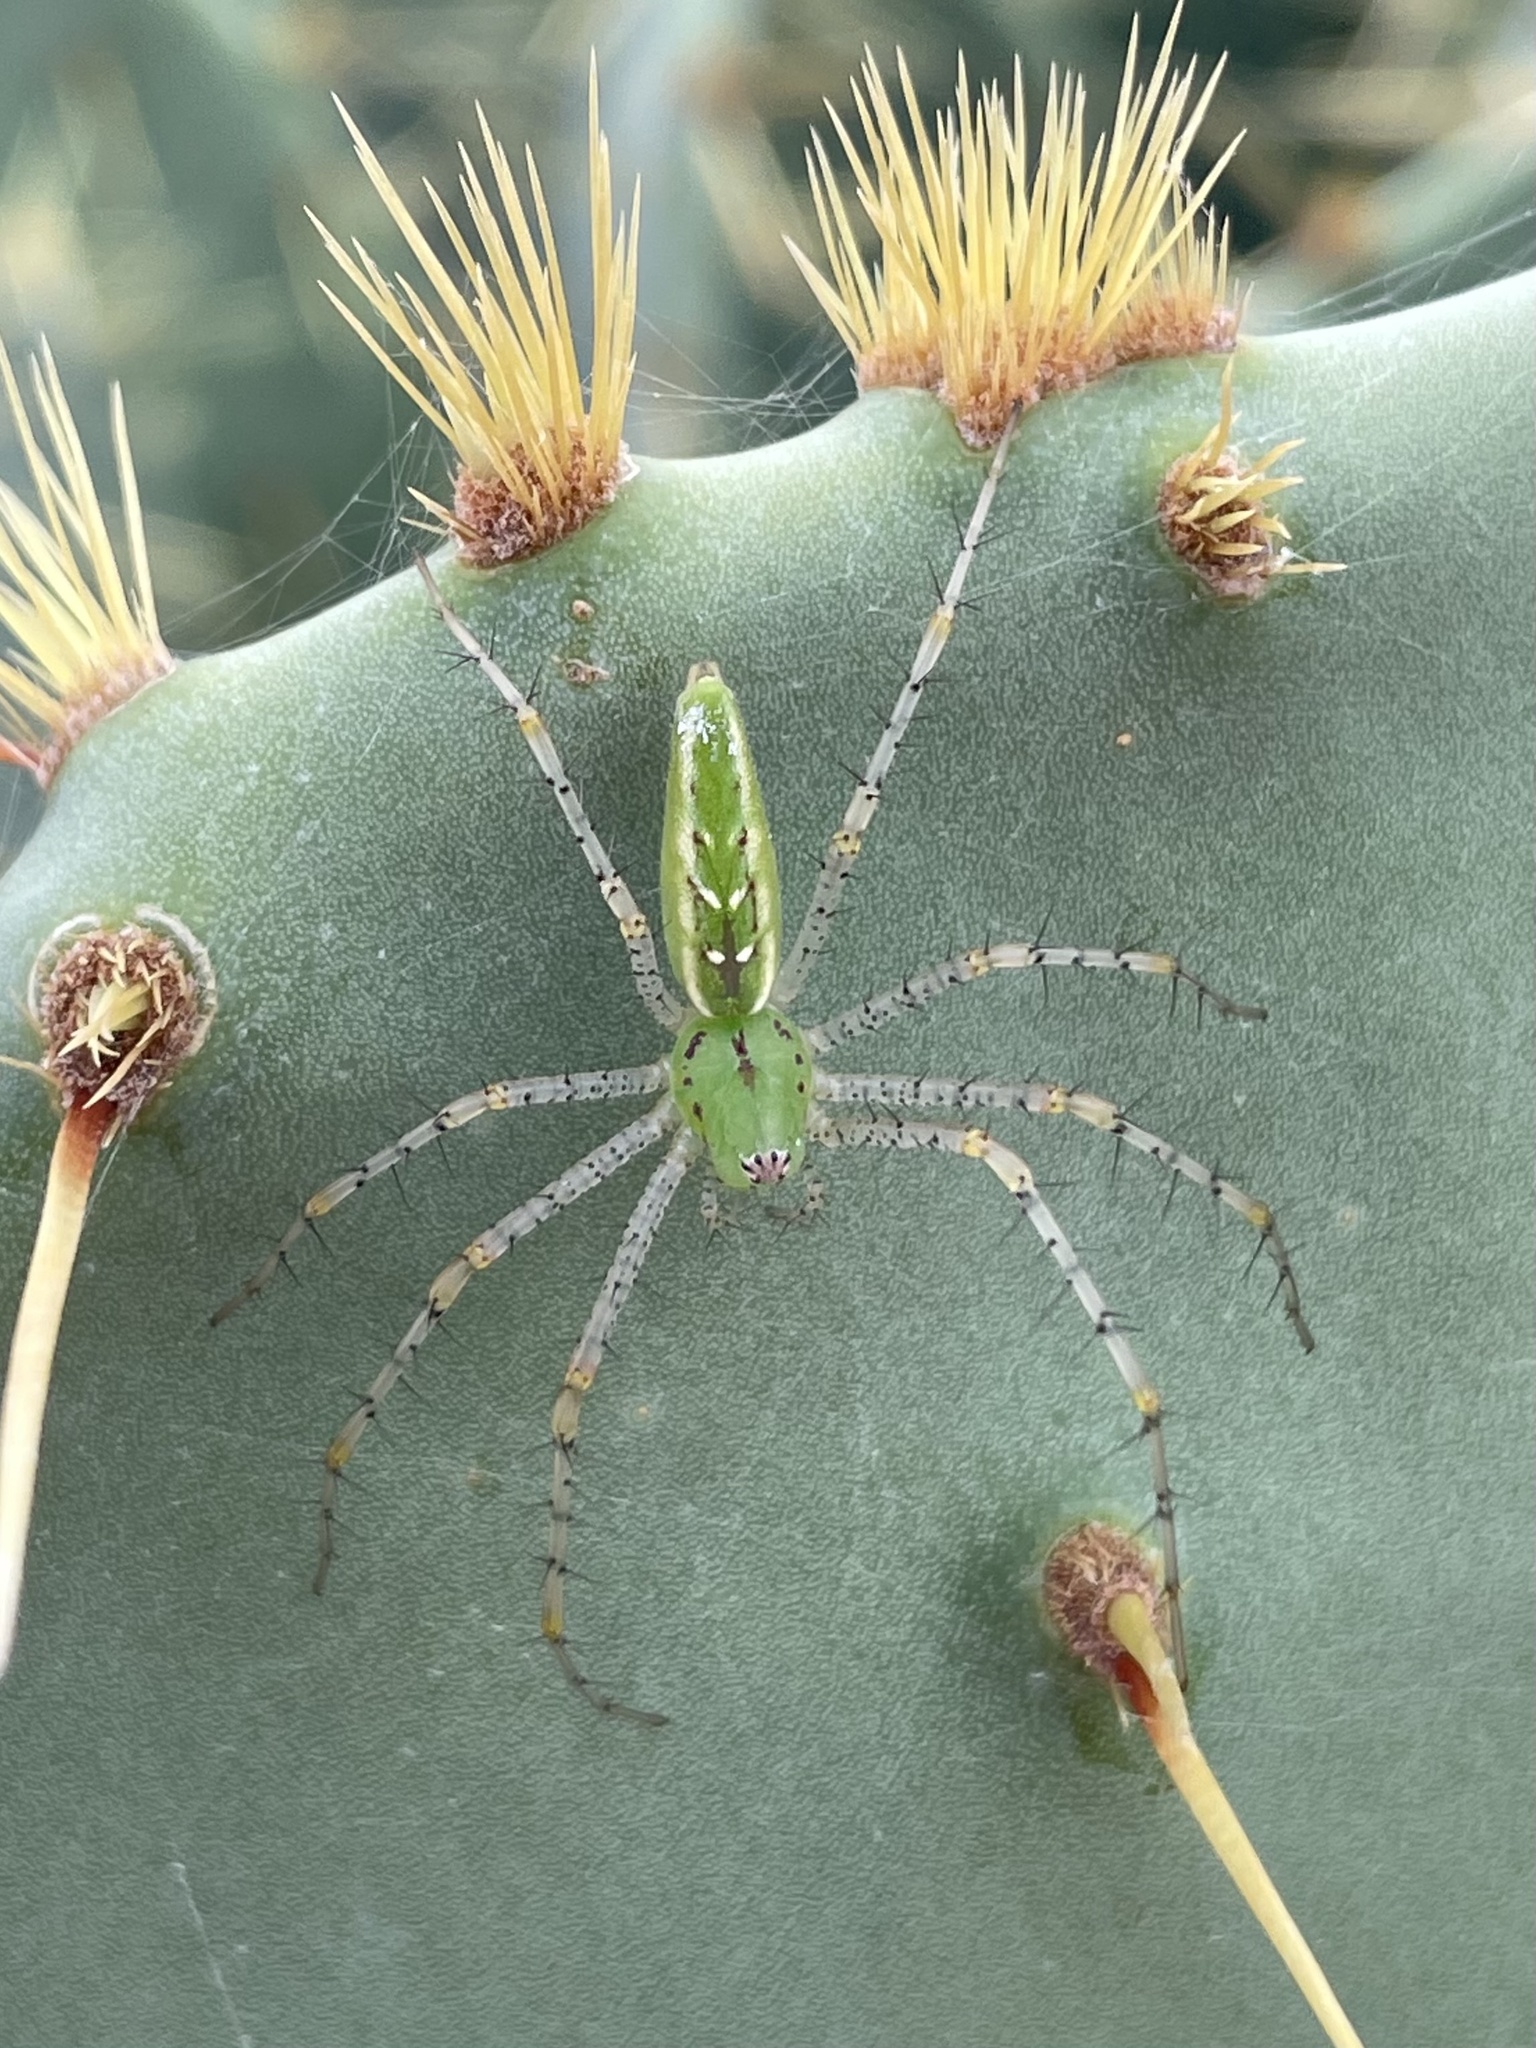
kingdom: Animalia
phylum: Arthropoda
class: Arachnida
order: Araneae
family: Oxyopidae
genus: Peucetia
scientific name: Peucetia viridans
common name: Lynx spiders
